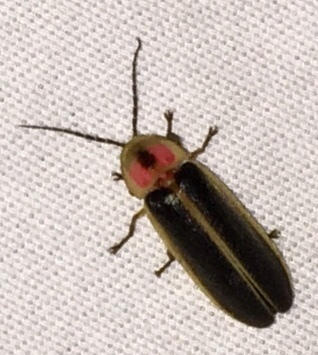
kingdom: Animalia
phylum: Arthropoda
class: Insecta
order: Coleoptera
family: Lampyridae
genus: Photinus
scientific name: Photinus pyralis
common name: Big dipper firefly
